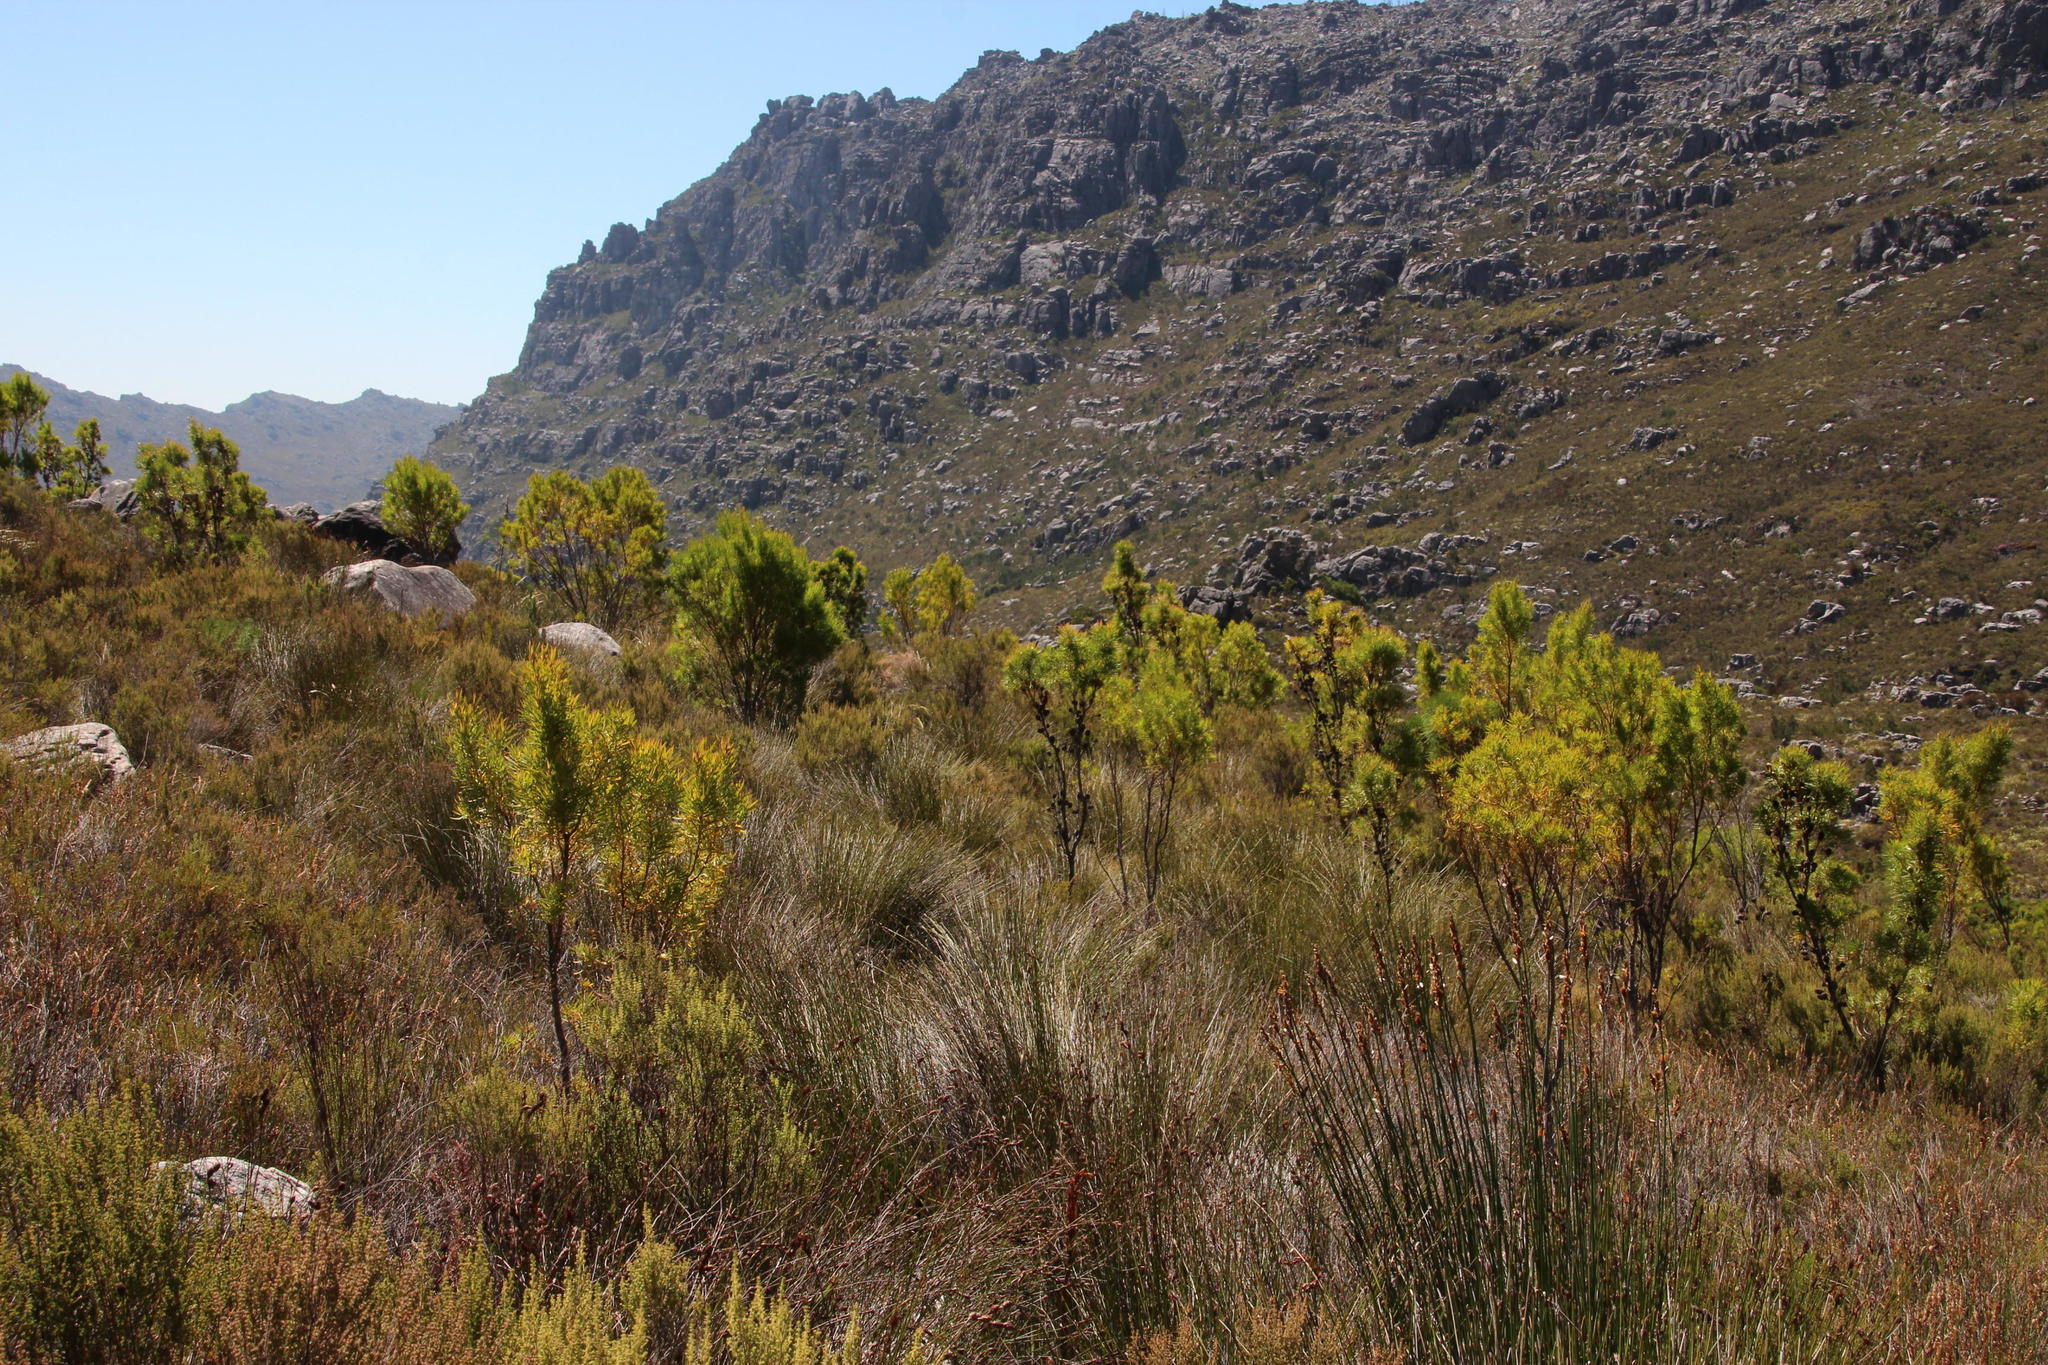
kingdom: Plantae
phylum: Tracheophyta
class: Magnoliopsida
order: Proteales
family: Proteaceae
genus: Leucadendron
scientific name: Leucadendron salicifolium
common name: Common stream conebush
